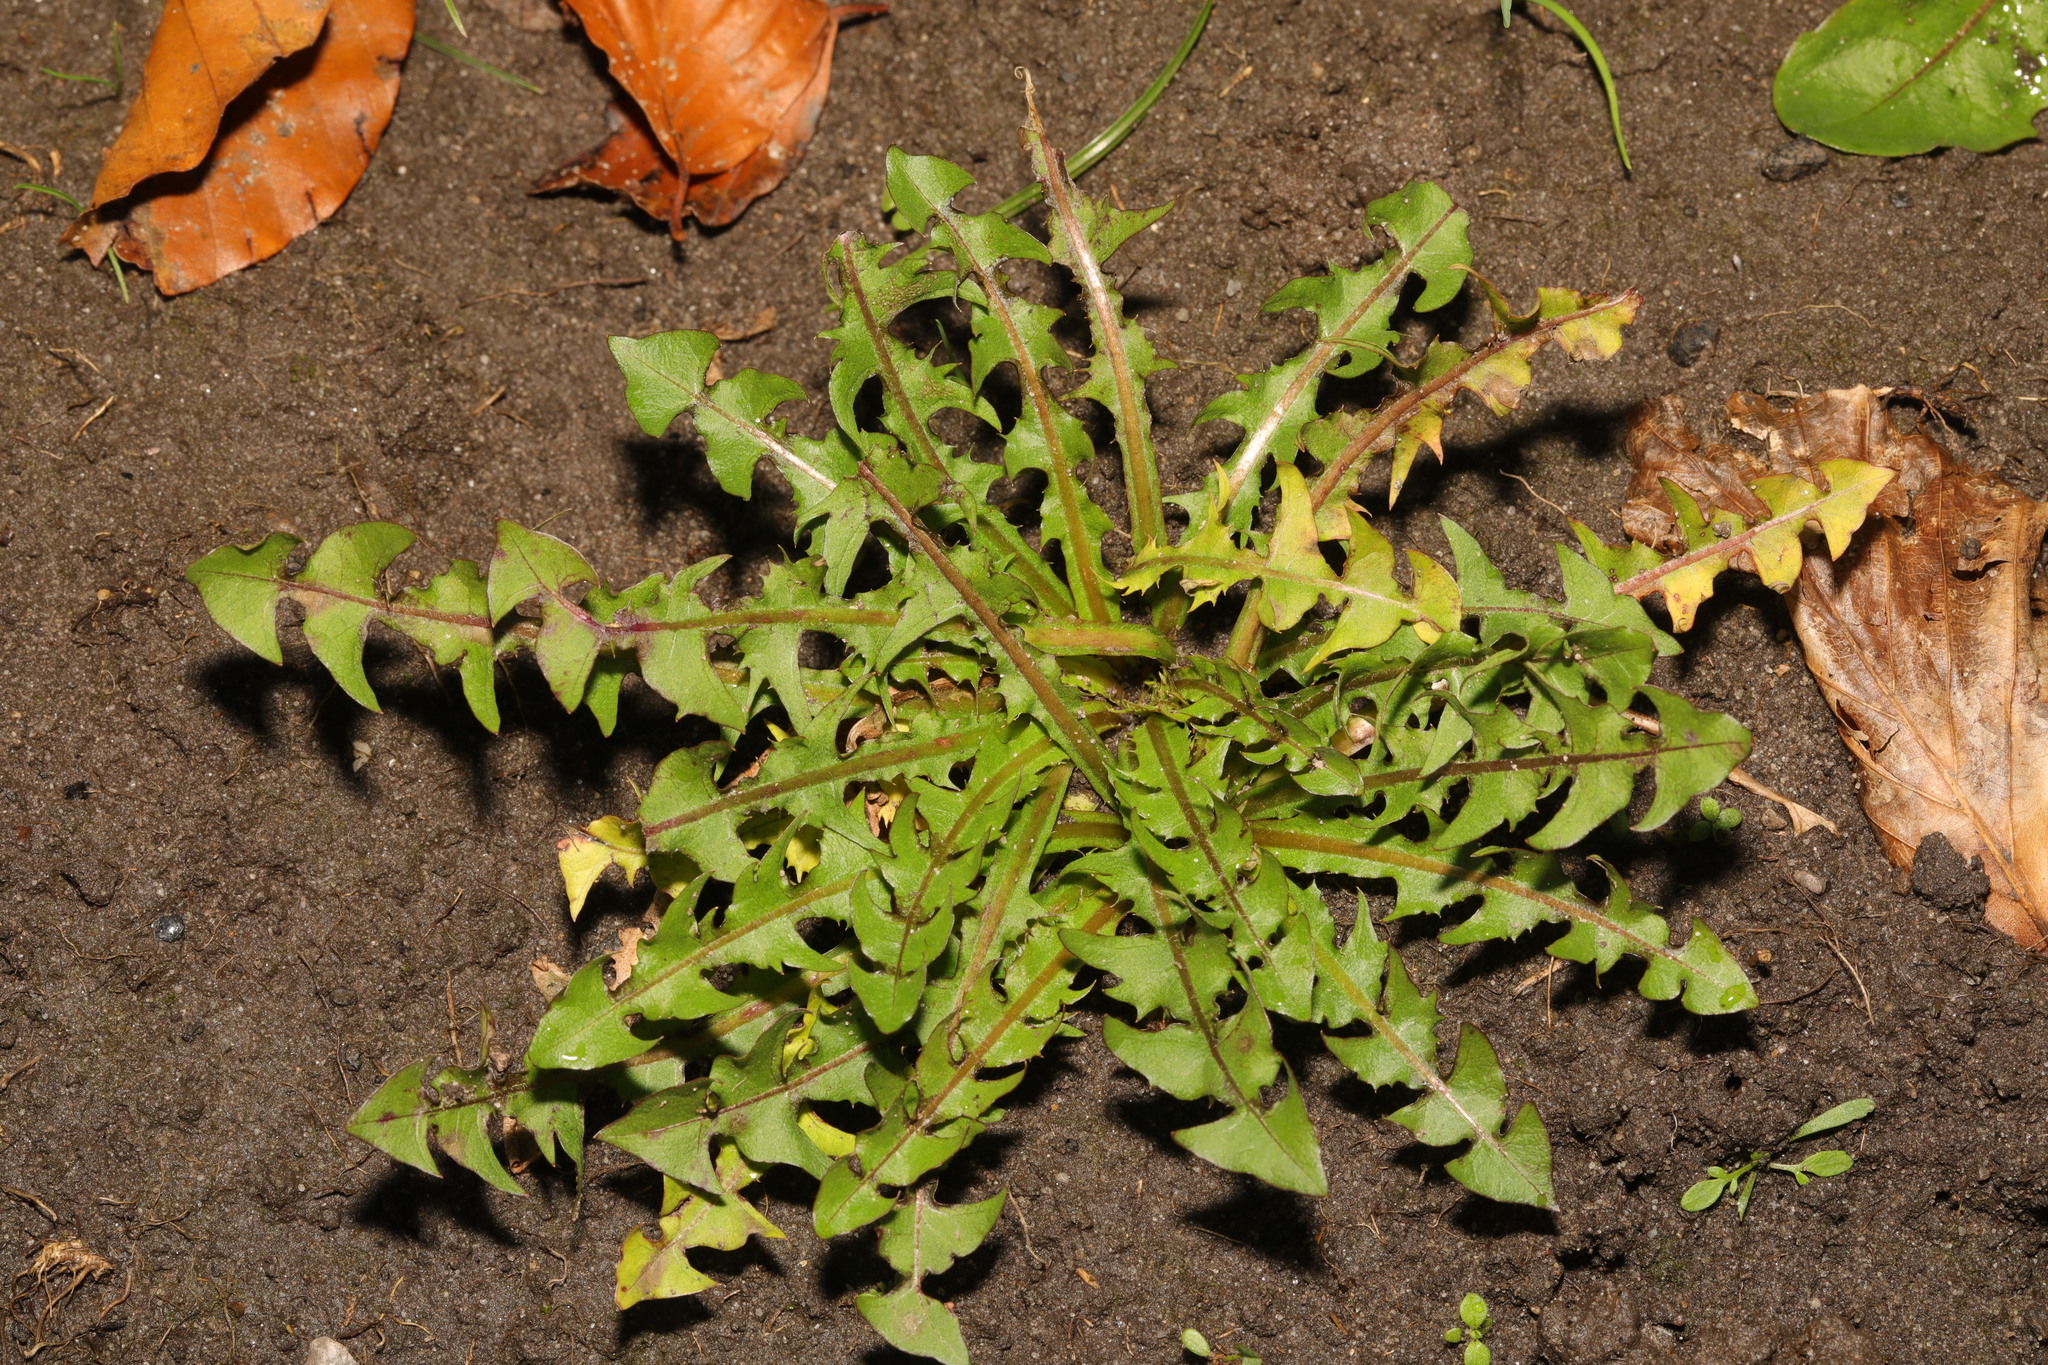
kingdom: Plantae
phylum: Tracheophyta
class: Magnoliopsida
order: Asterales
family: Asteraceae
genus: Taraxacum
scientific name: Taraxacum officinale
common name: Common dandelion
